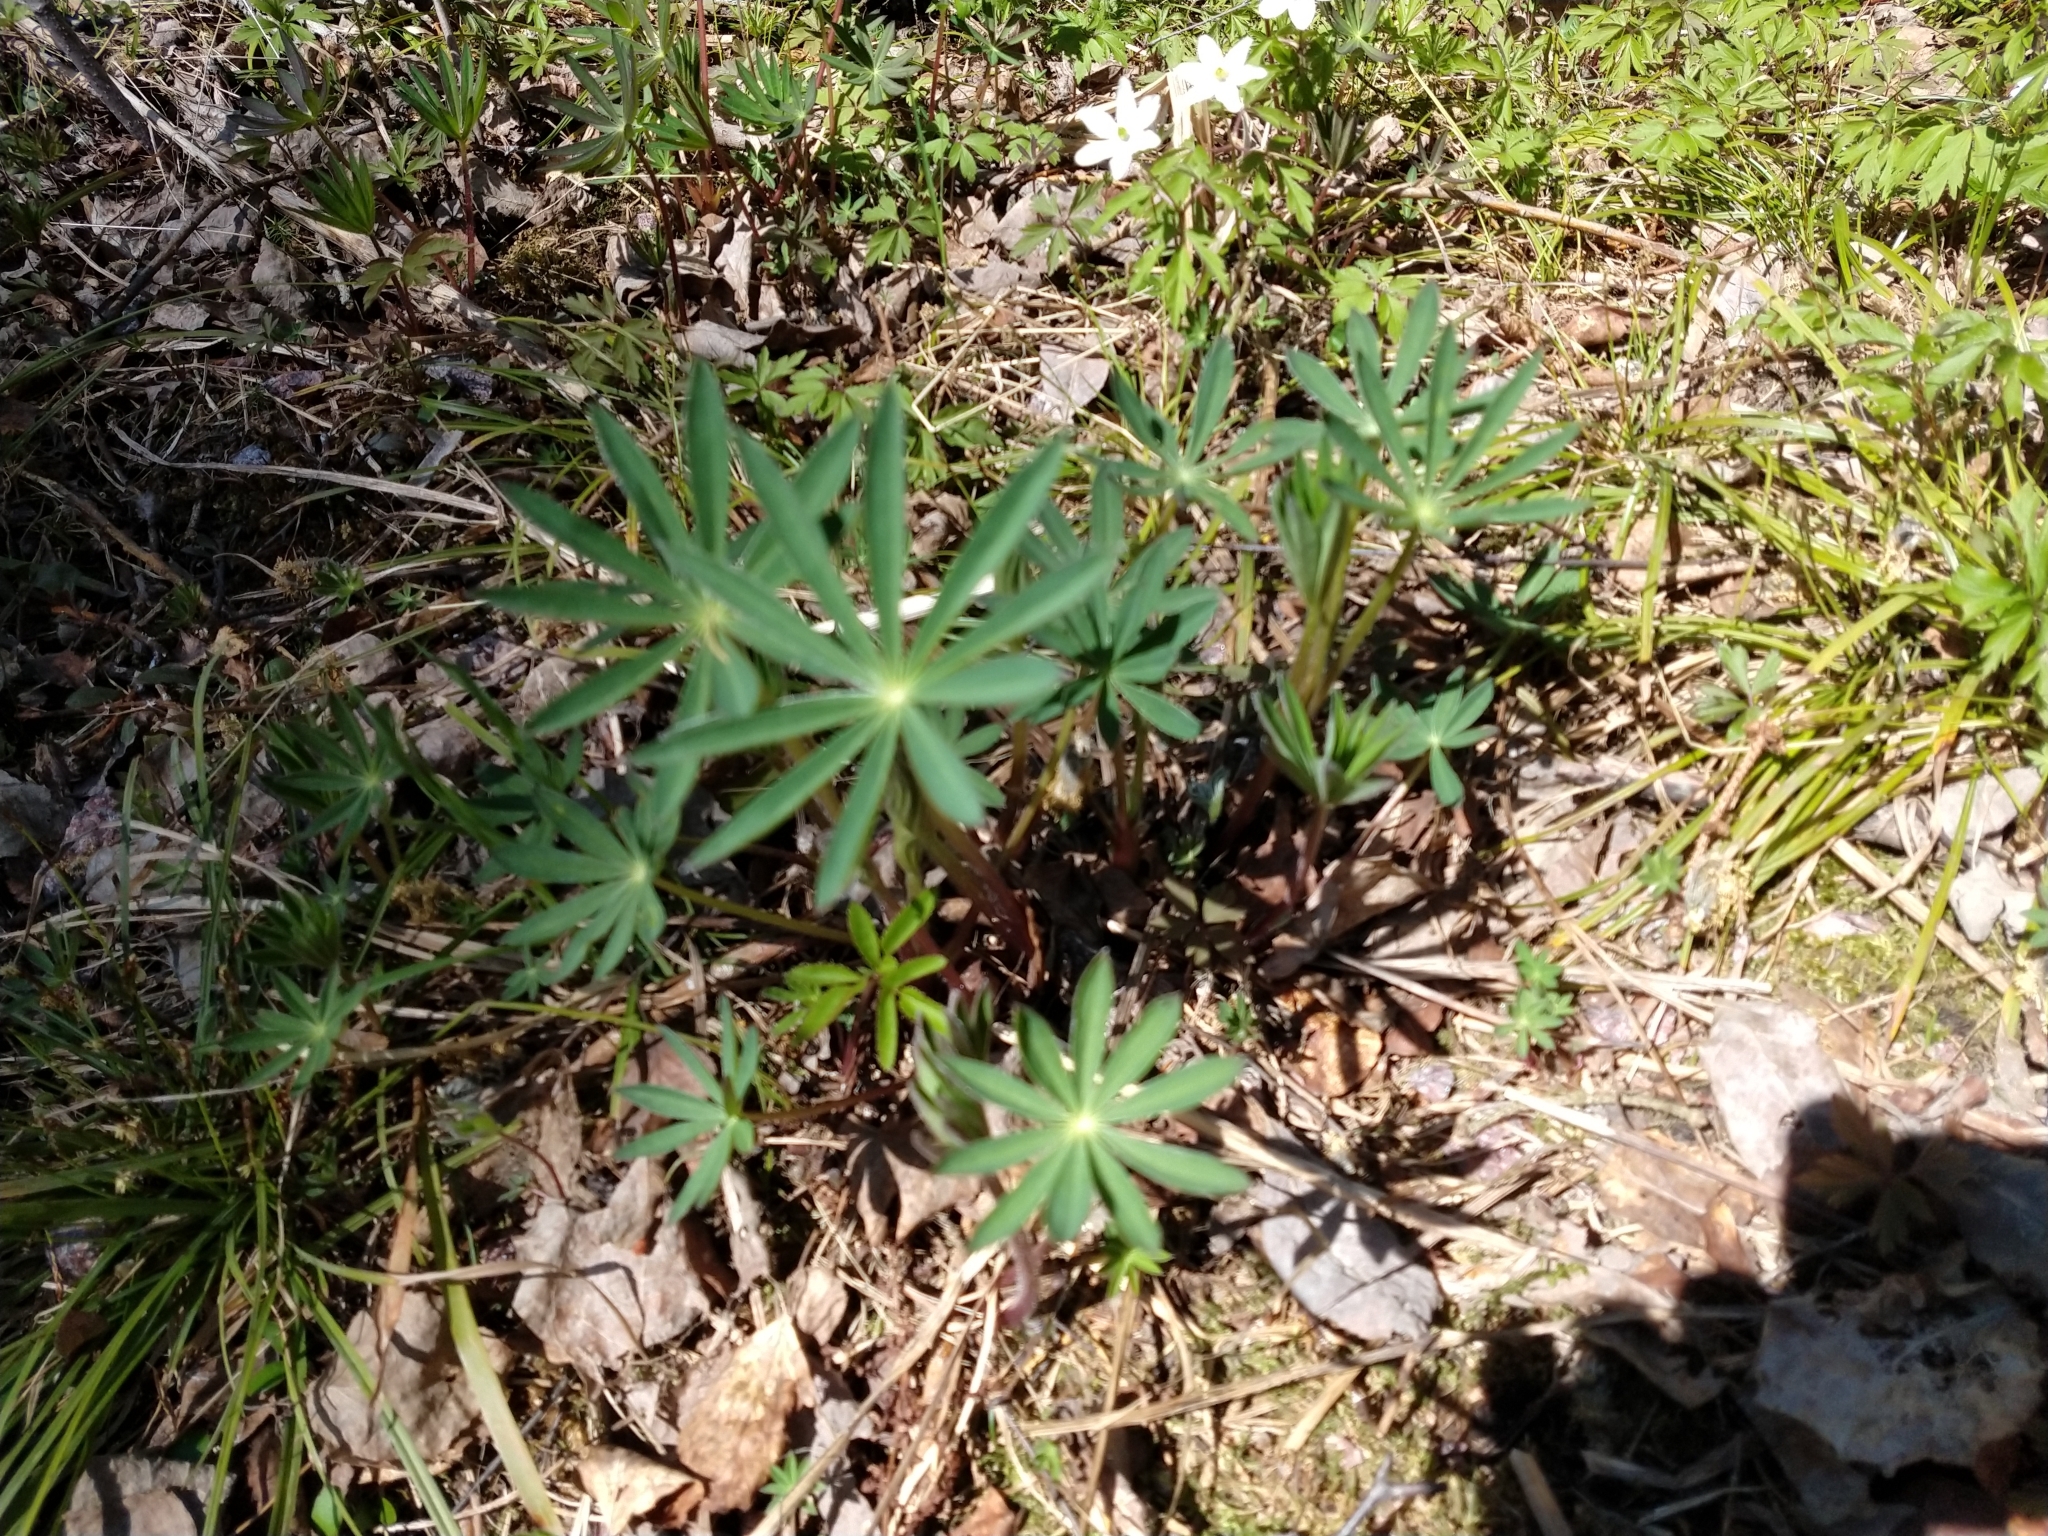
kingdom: Plantae
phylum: Tracheophyta
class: Magnoliopsida
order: Fabales
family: Fabaceae
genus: Lupinus
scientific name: Lupinus polyphyllus
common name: Garden lupin
